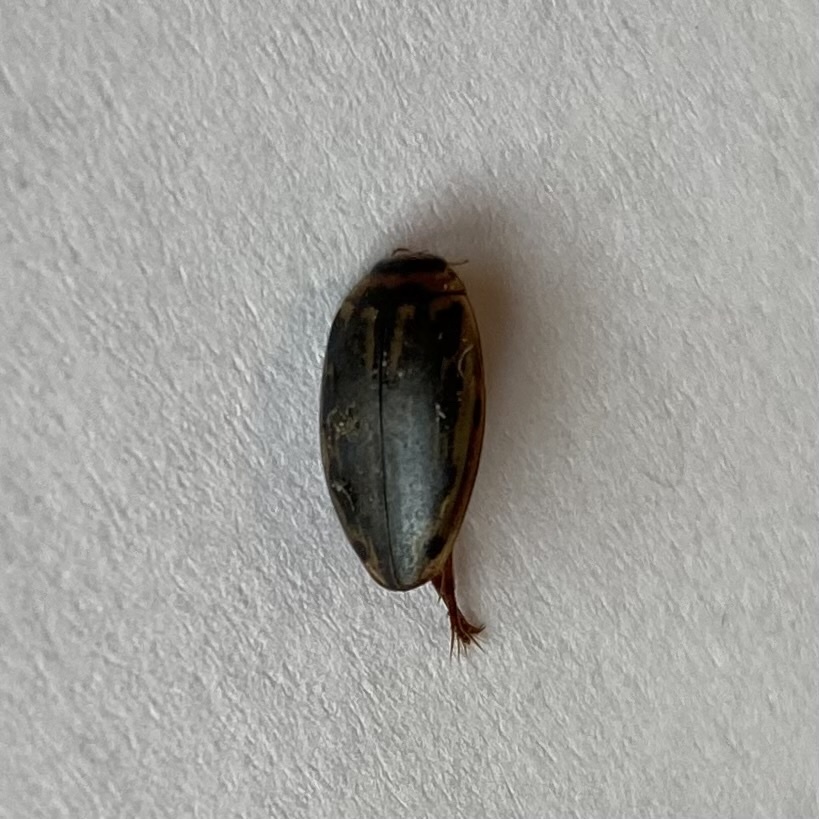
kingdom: Animalia
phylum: Arthropoda
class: Insecta
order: Coleoptera
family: Dytiscidae
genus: Coptotomus
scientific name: Coptotomus longulus
